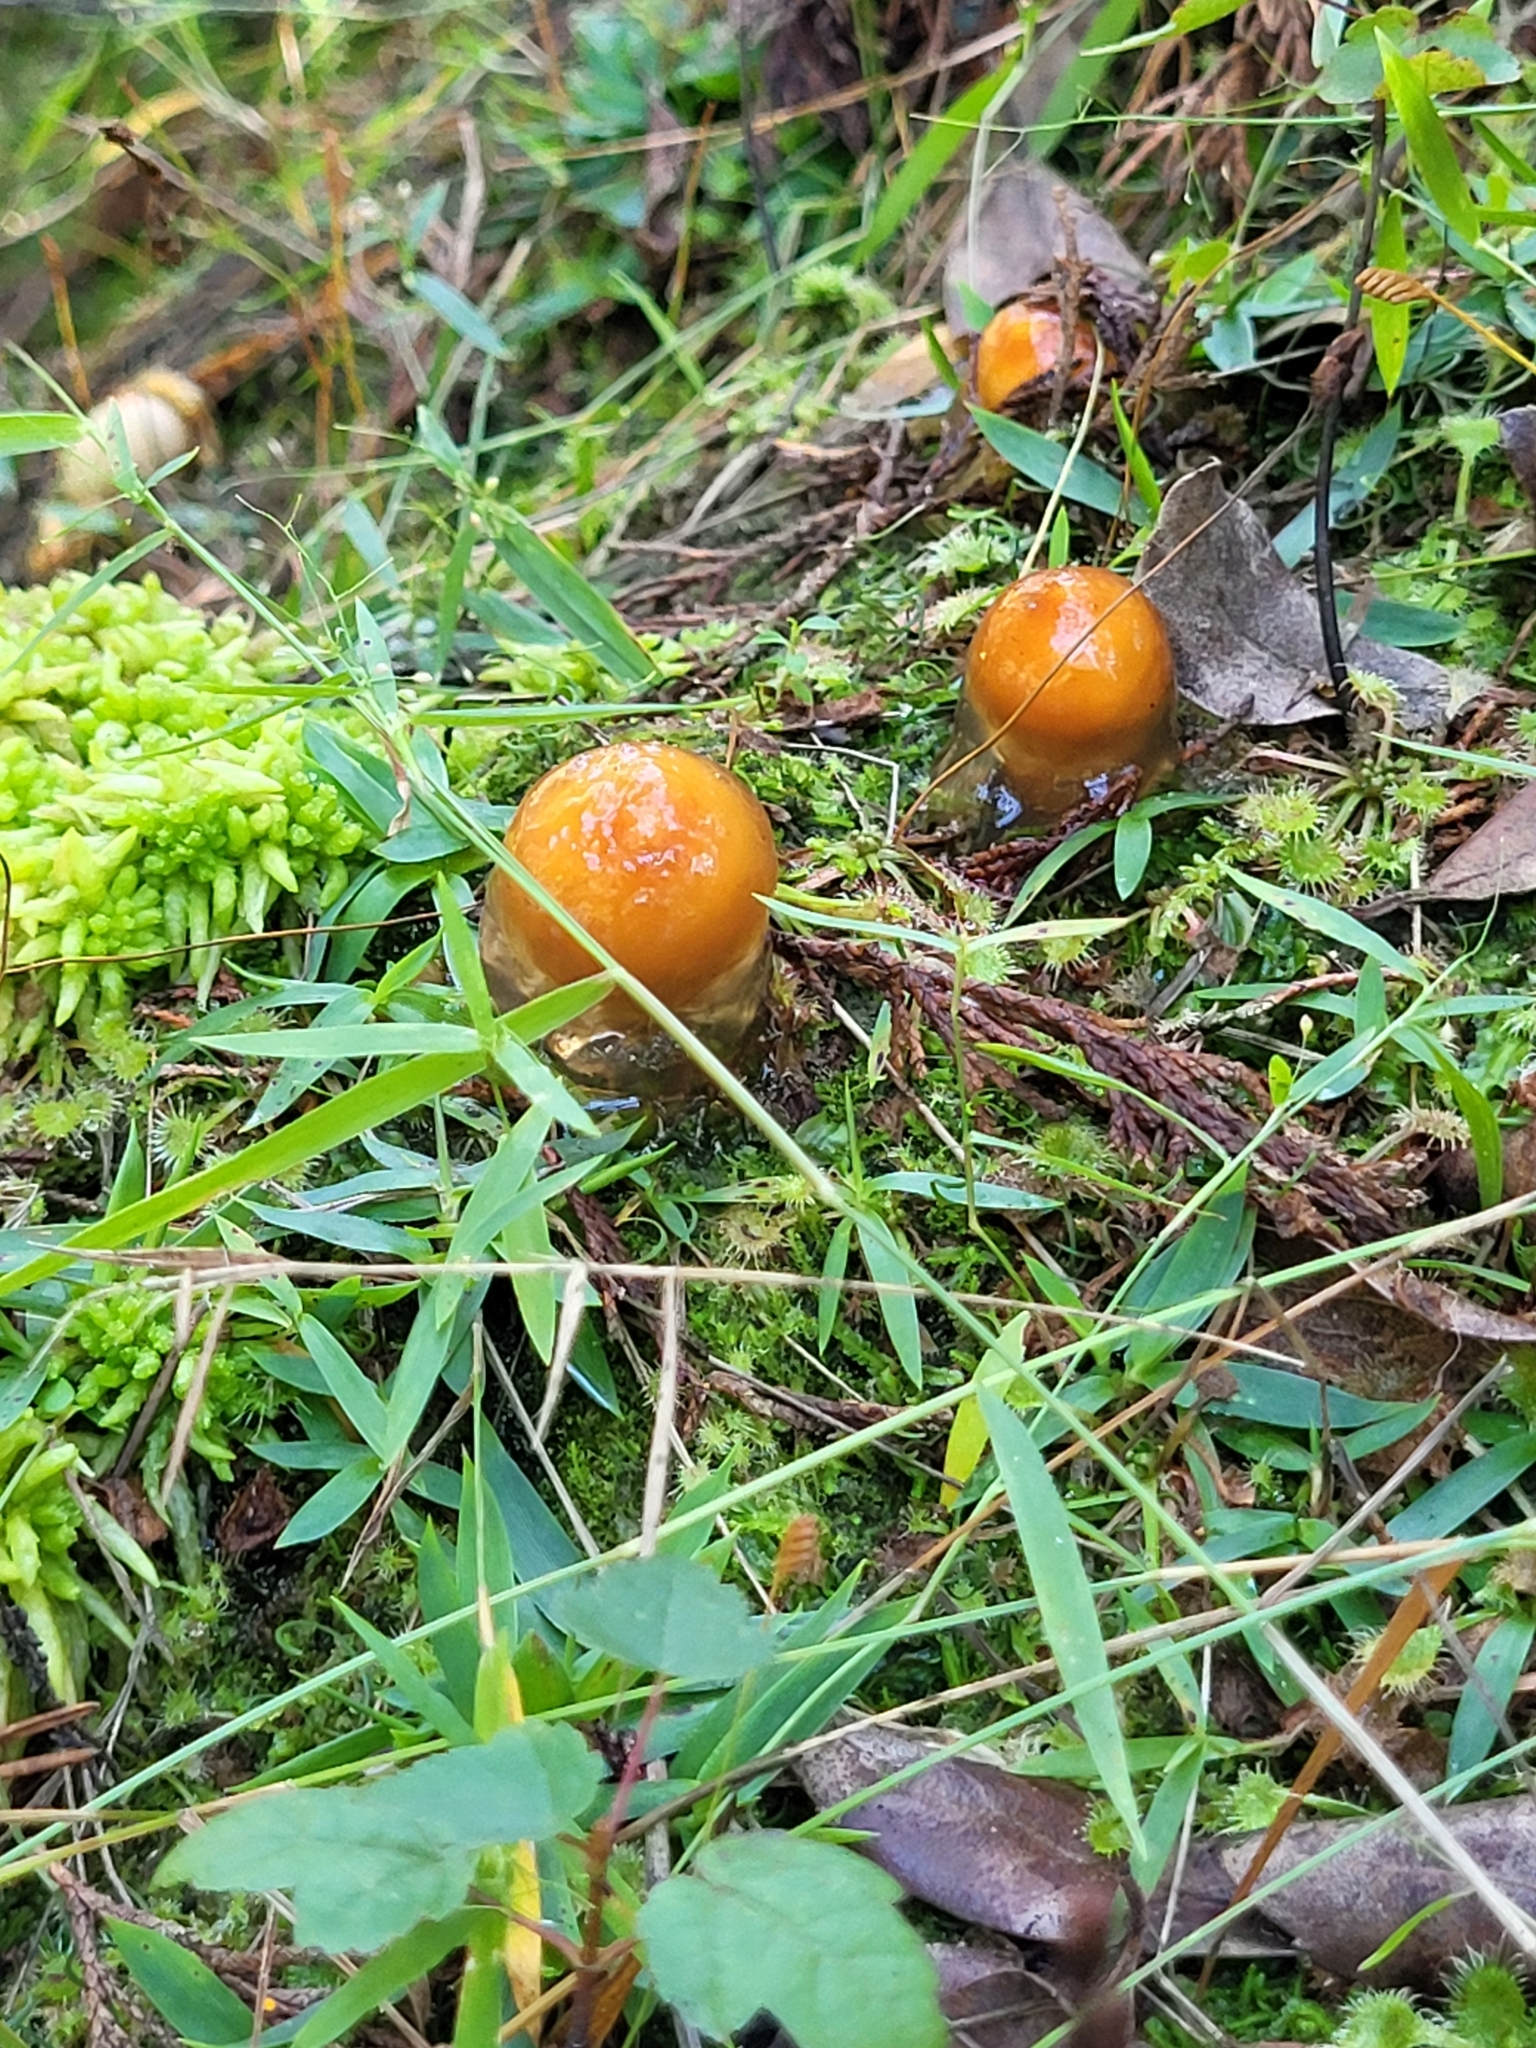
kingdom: Fungi
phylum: Basidiomycota
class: Agaricomycetes
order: Boletales
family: Calostomataceae
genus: Calostoma
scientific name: Calostoma cinnabarinum
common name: Stalked puffball-in-aspic
